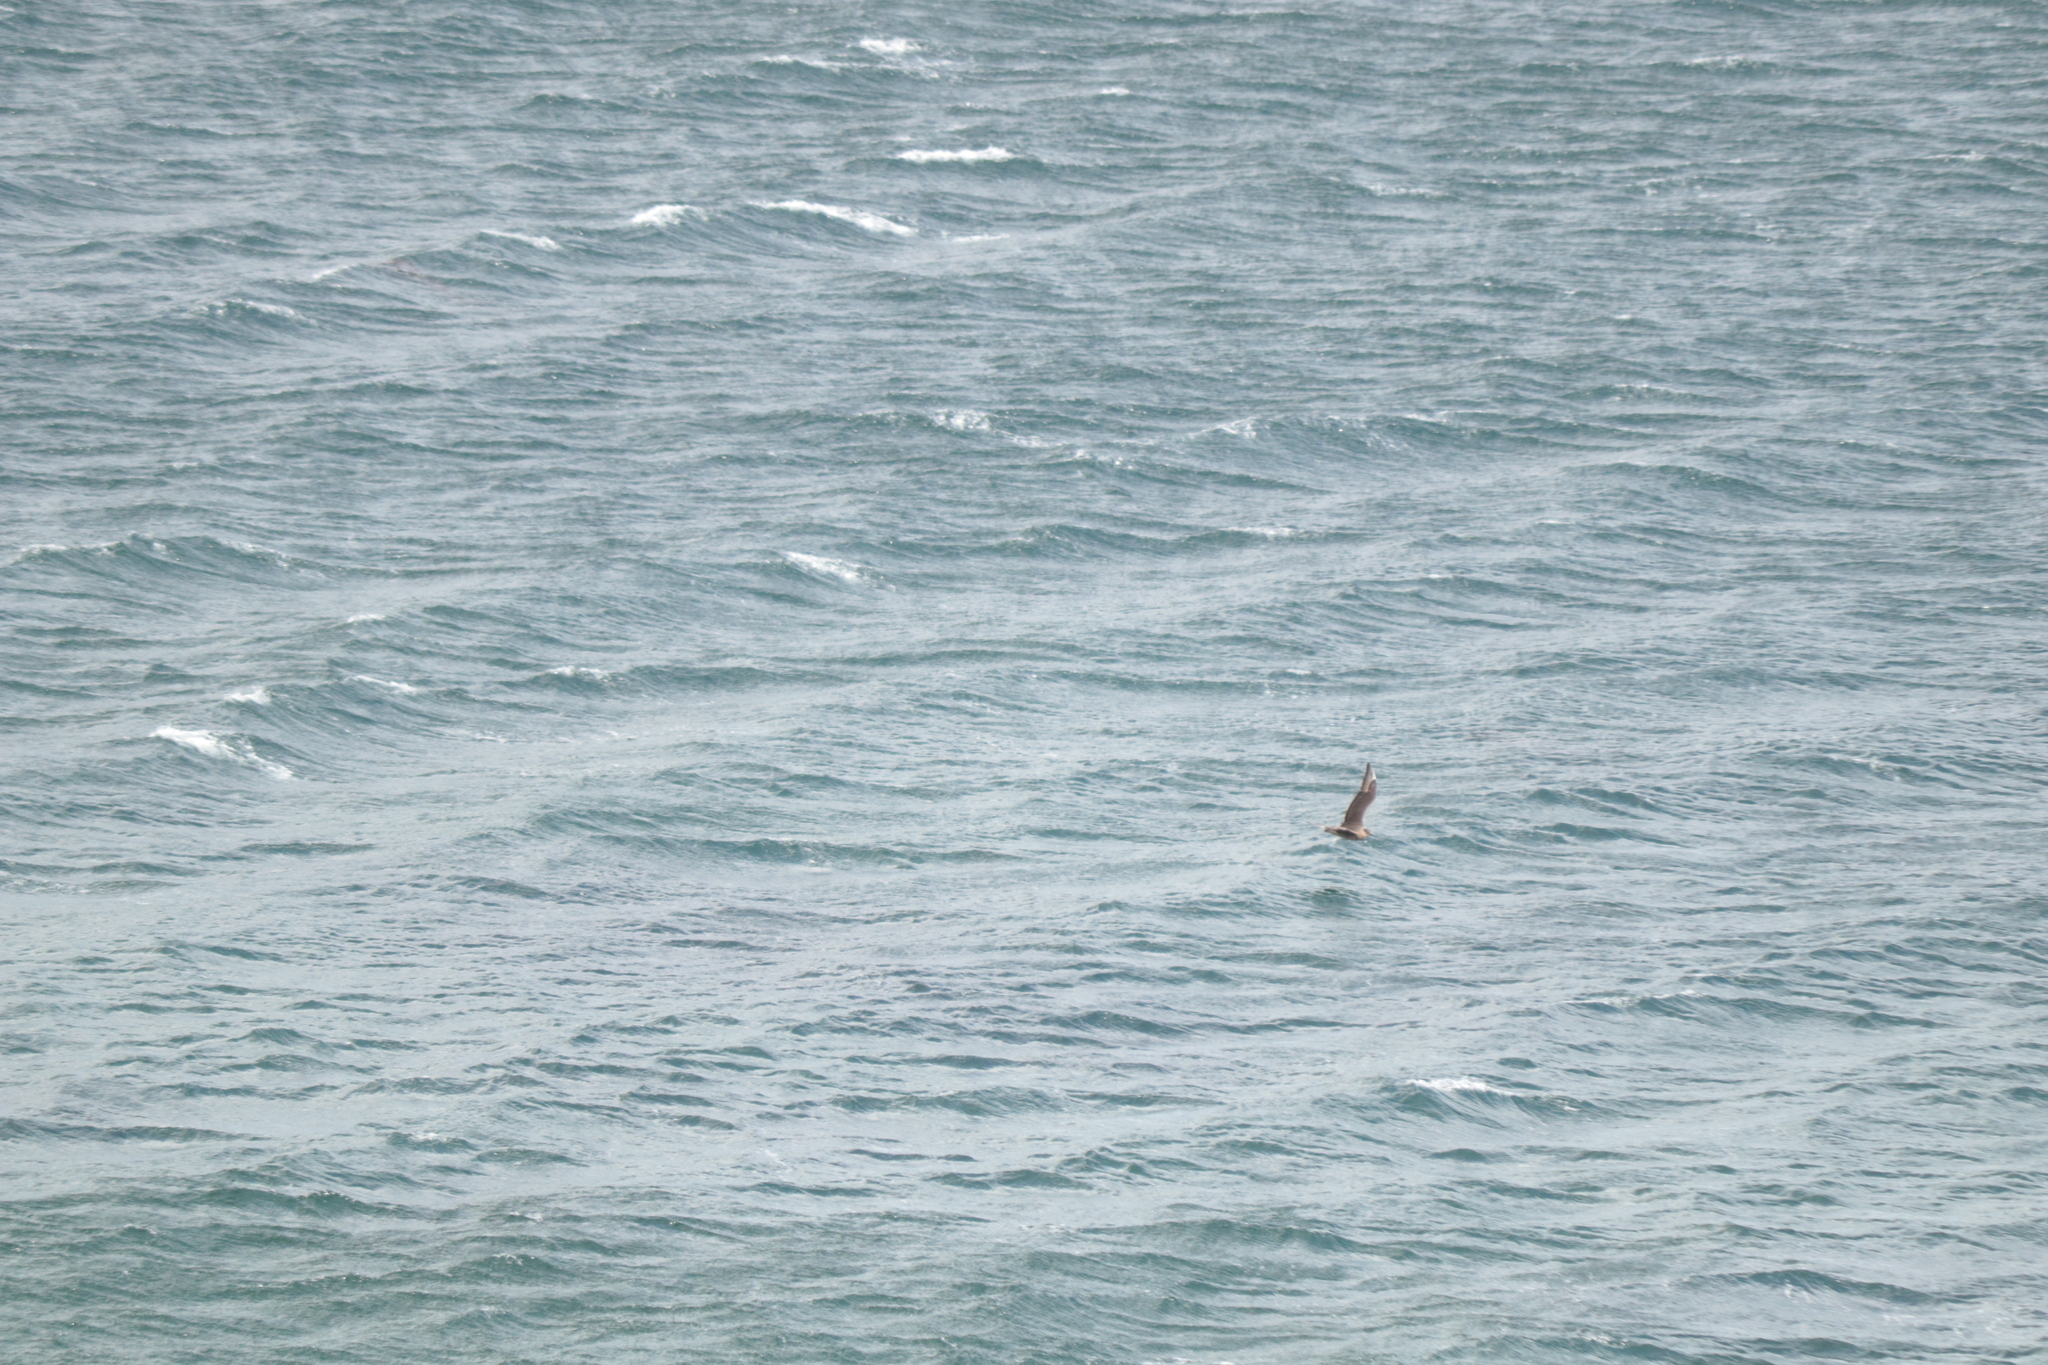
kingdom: Animalia
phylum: Chordata
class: Aves
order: Charadriiformes
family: Stercorariidae
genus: Stercorarius
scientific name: Stercorarius chilensis
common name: Chilean skua
